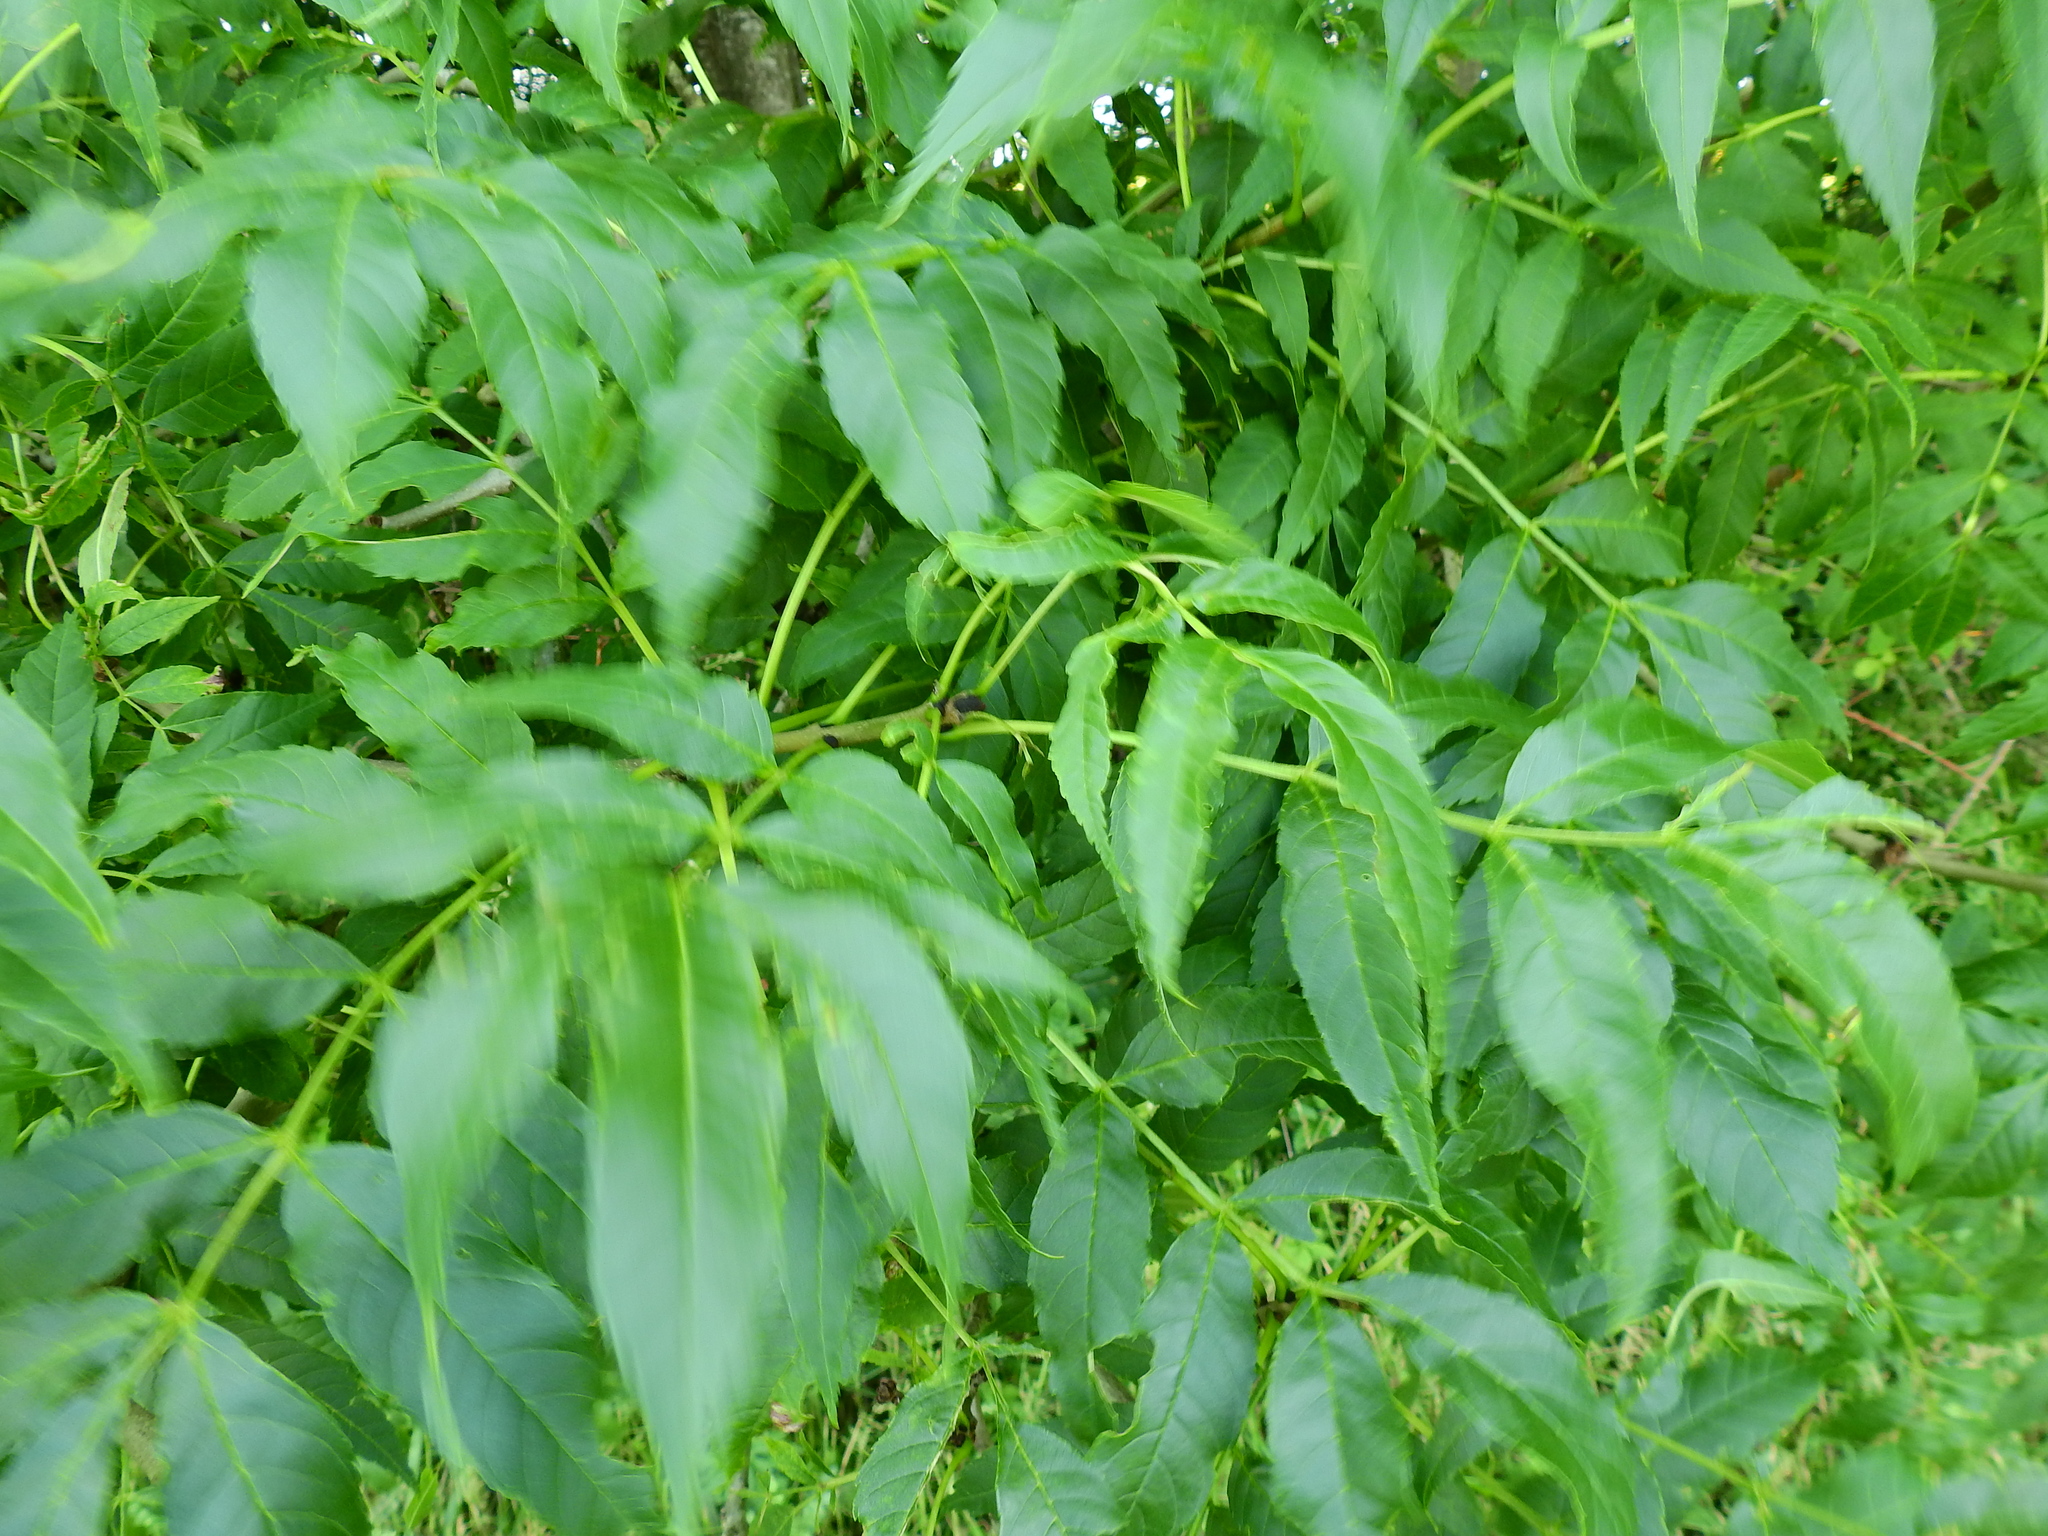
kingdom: Plantae
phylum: Tracheophyta
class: Magnoliopsida
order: Lamiales
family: Oleaceae
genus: Fraxinus
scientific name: Fraxinus excelsior
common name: European ash
